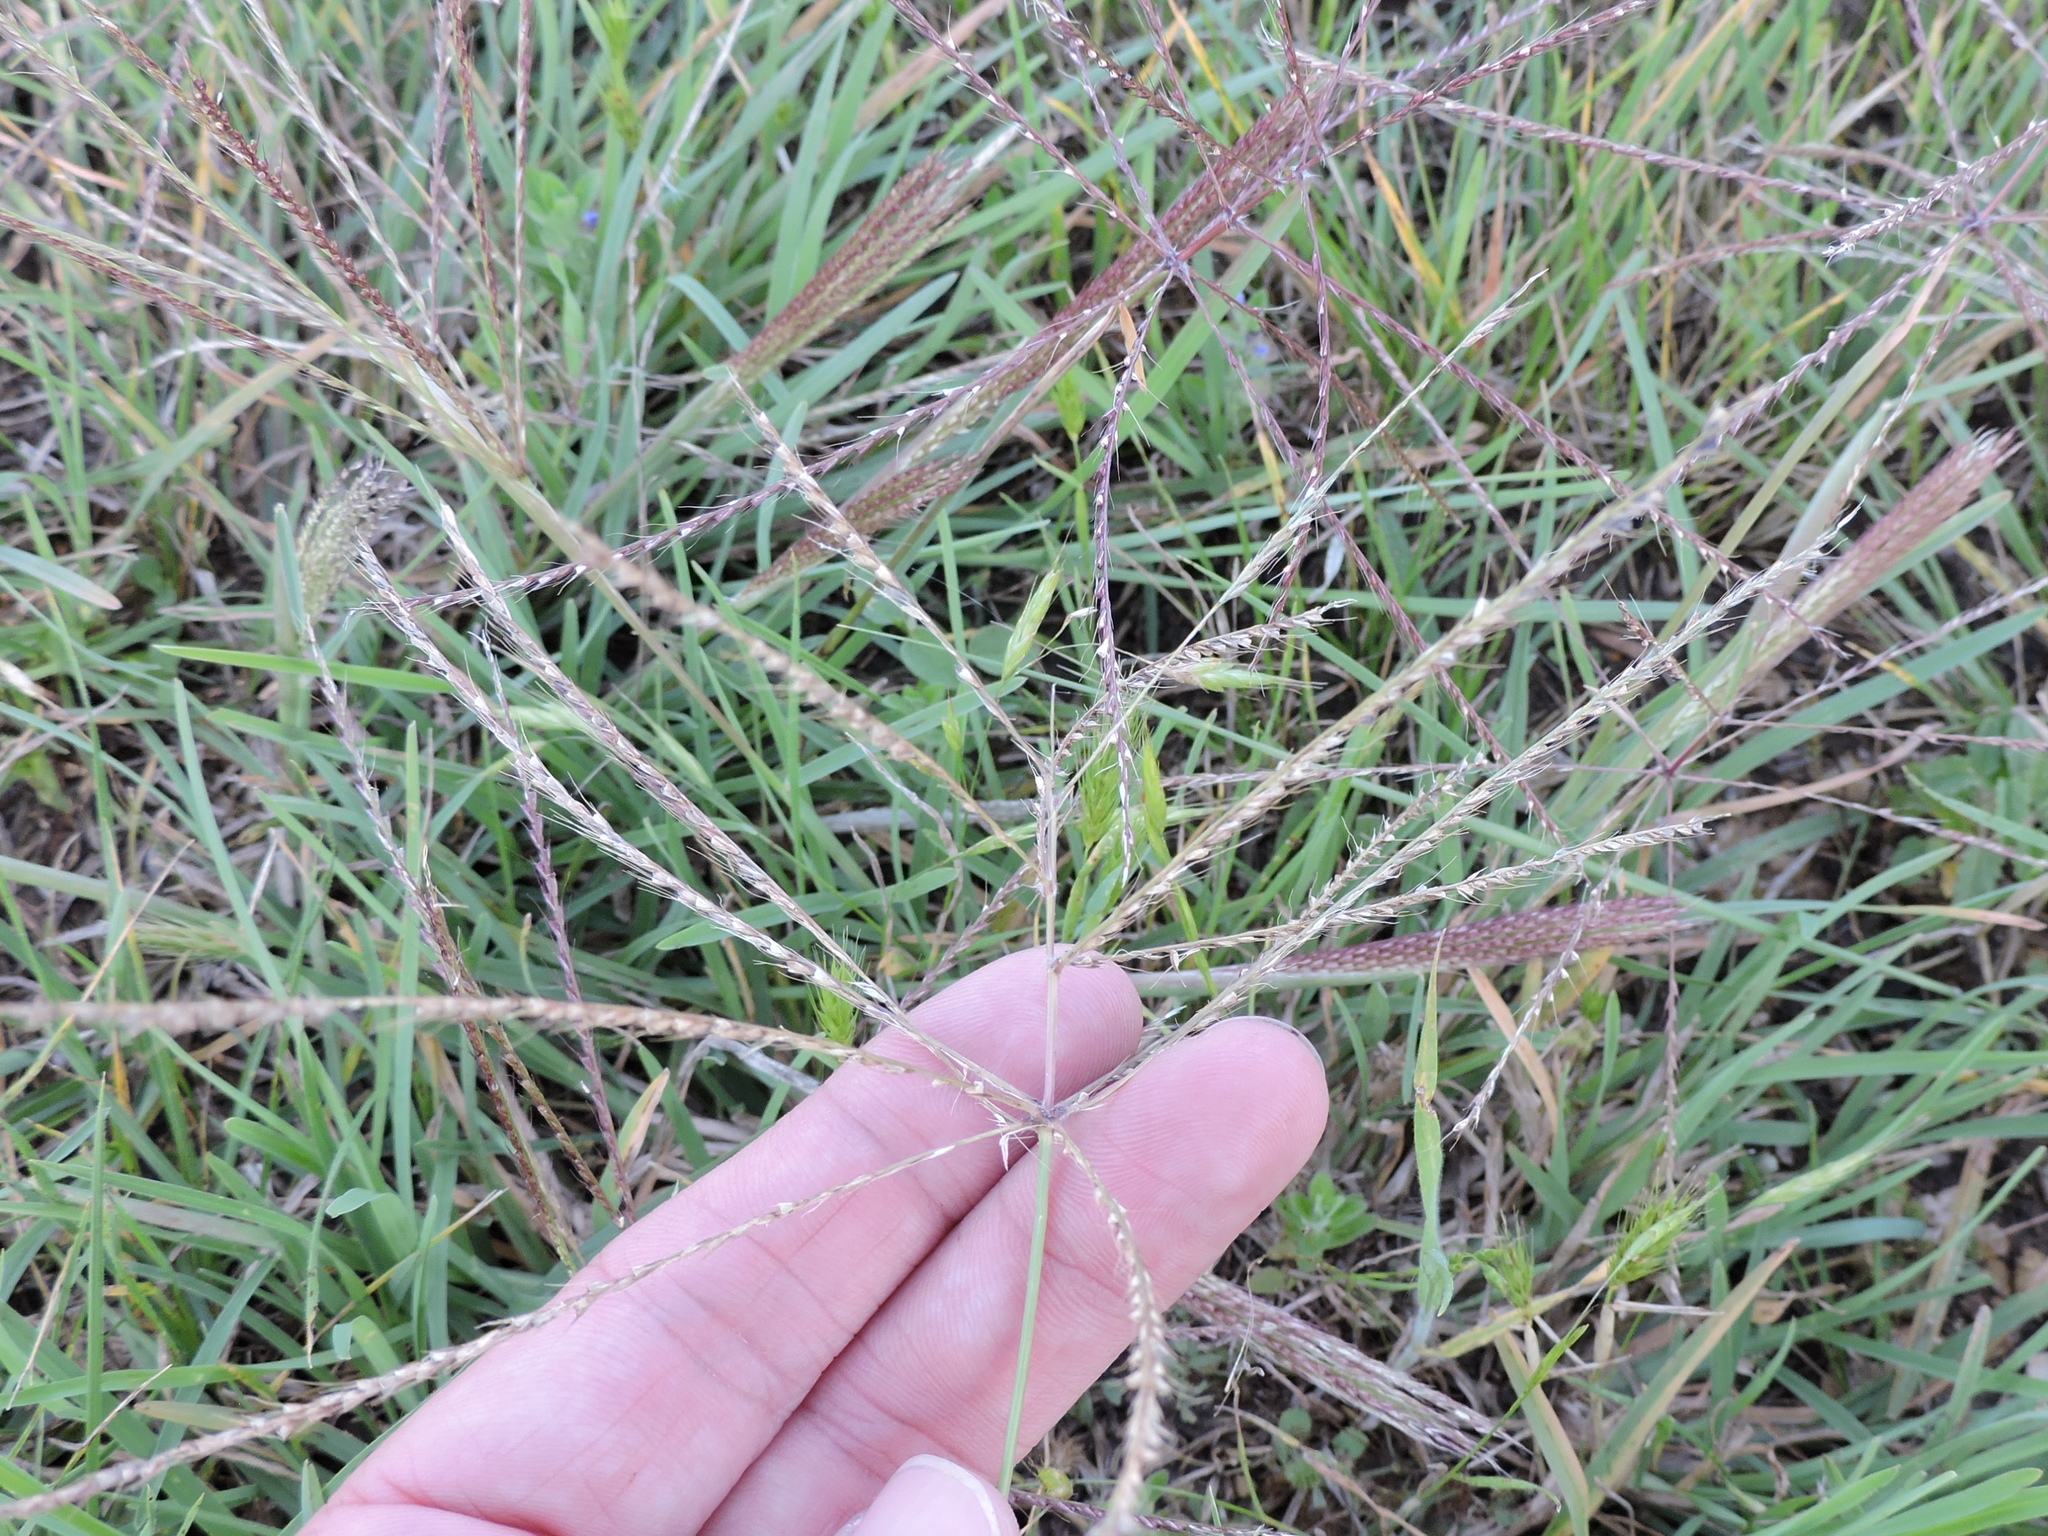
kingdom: Plantae
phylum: Tracheophyta
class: Liliopsida
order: Poales
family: Poaceae
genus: Chloris
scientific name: Chloris verticillata
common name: Tumble windmill grass
